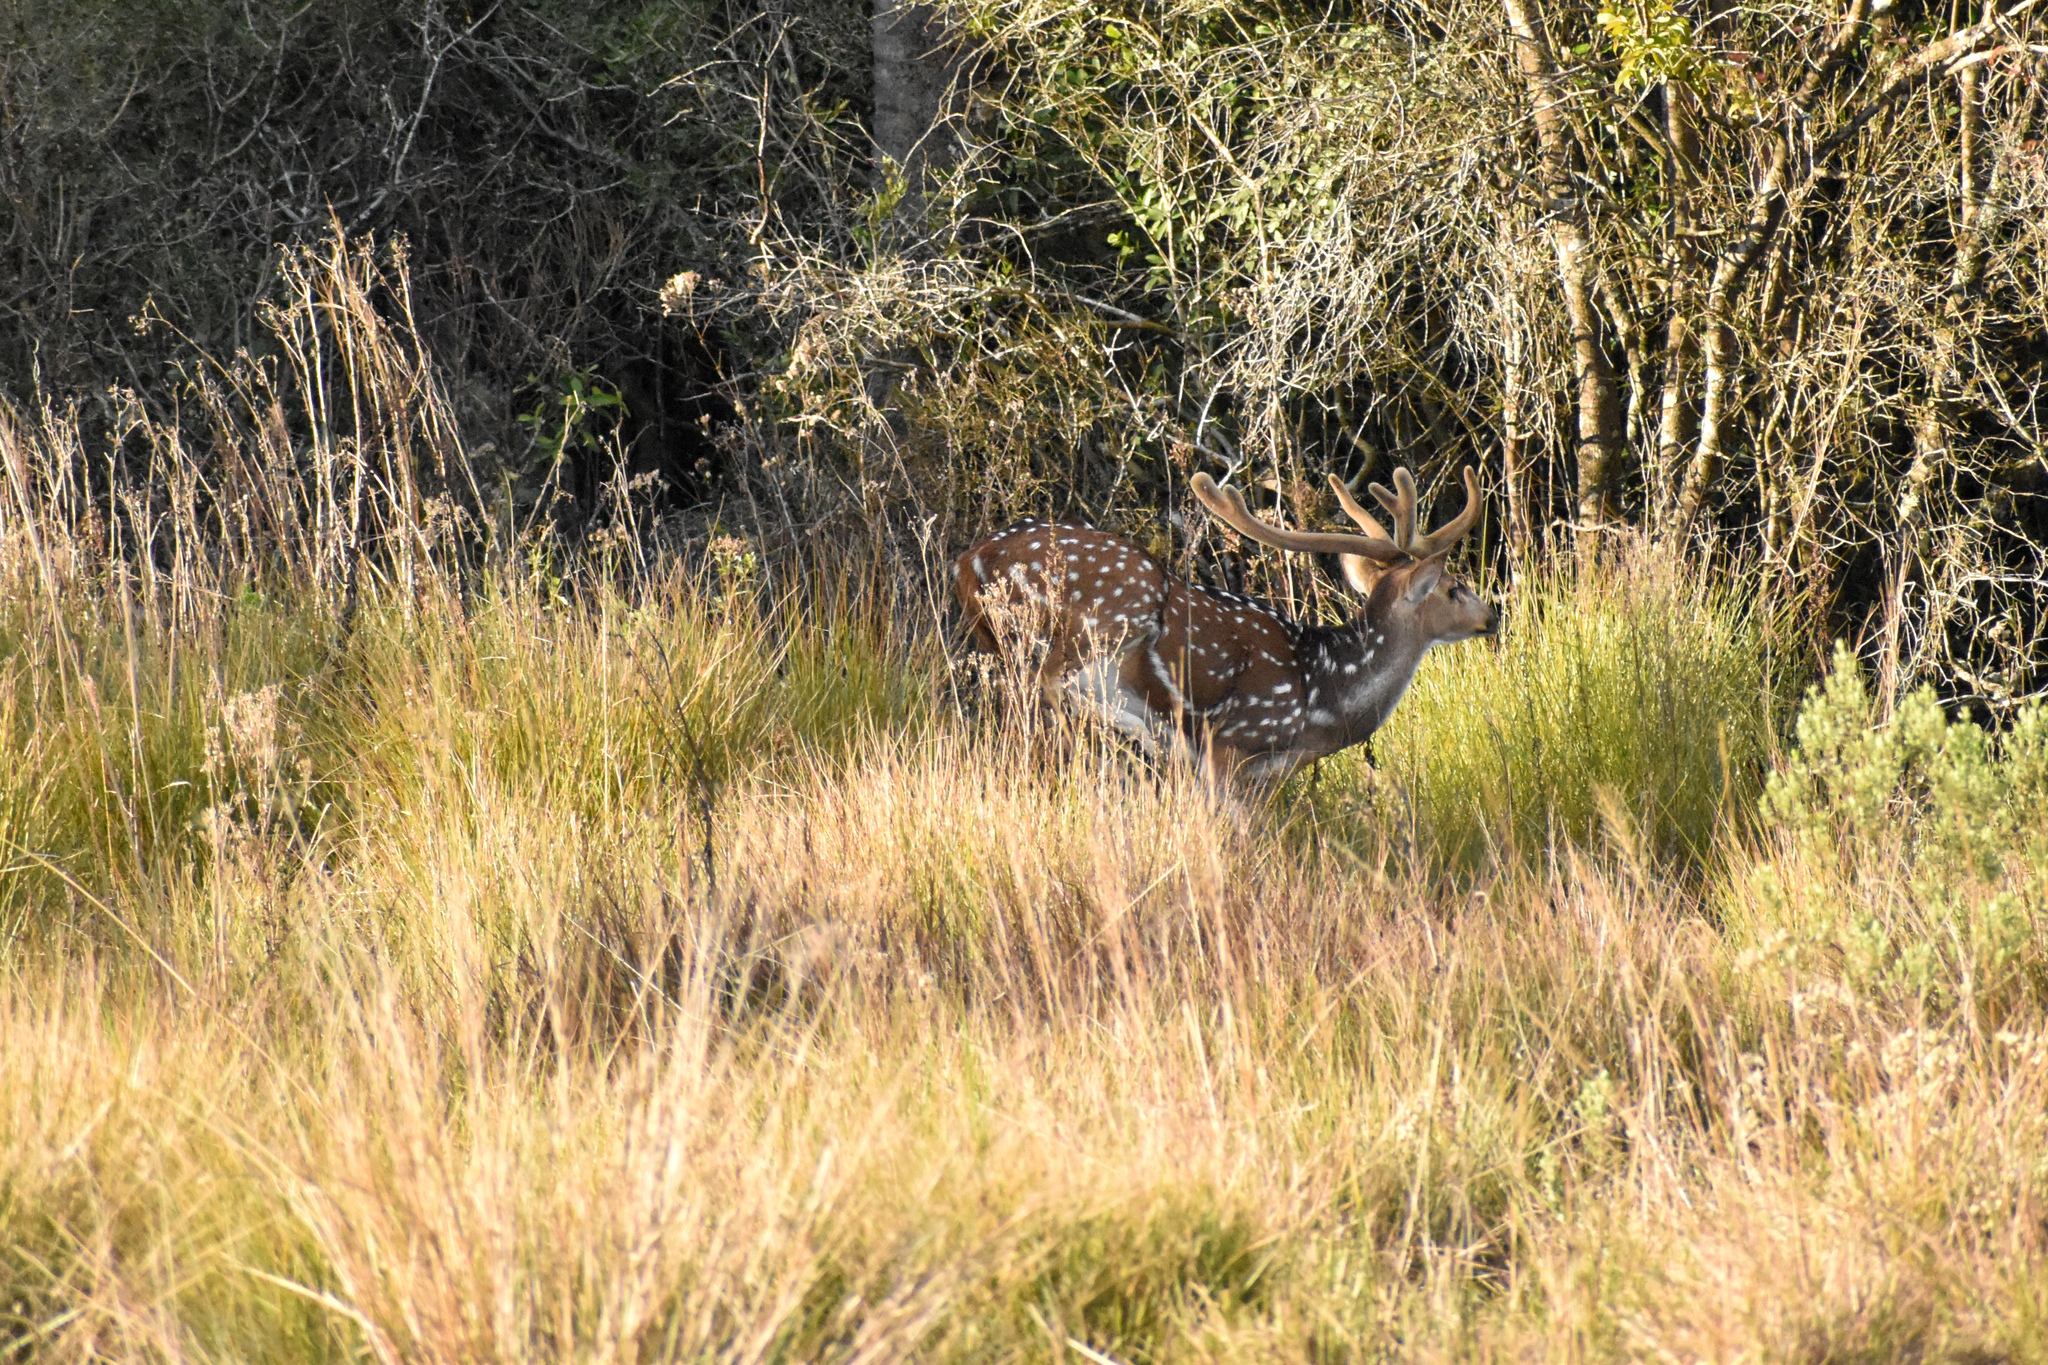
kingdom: Animalia
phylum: Chordata
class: Mammalia
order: Artiodactyla
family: Cervidae
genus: Axis
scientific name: Axis axis
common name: Chital
